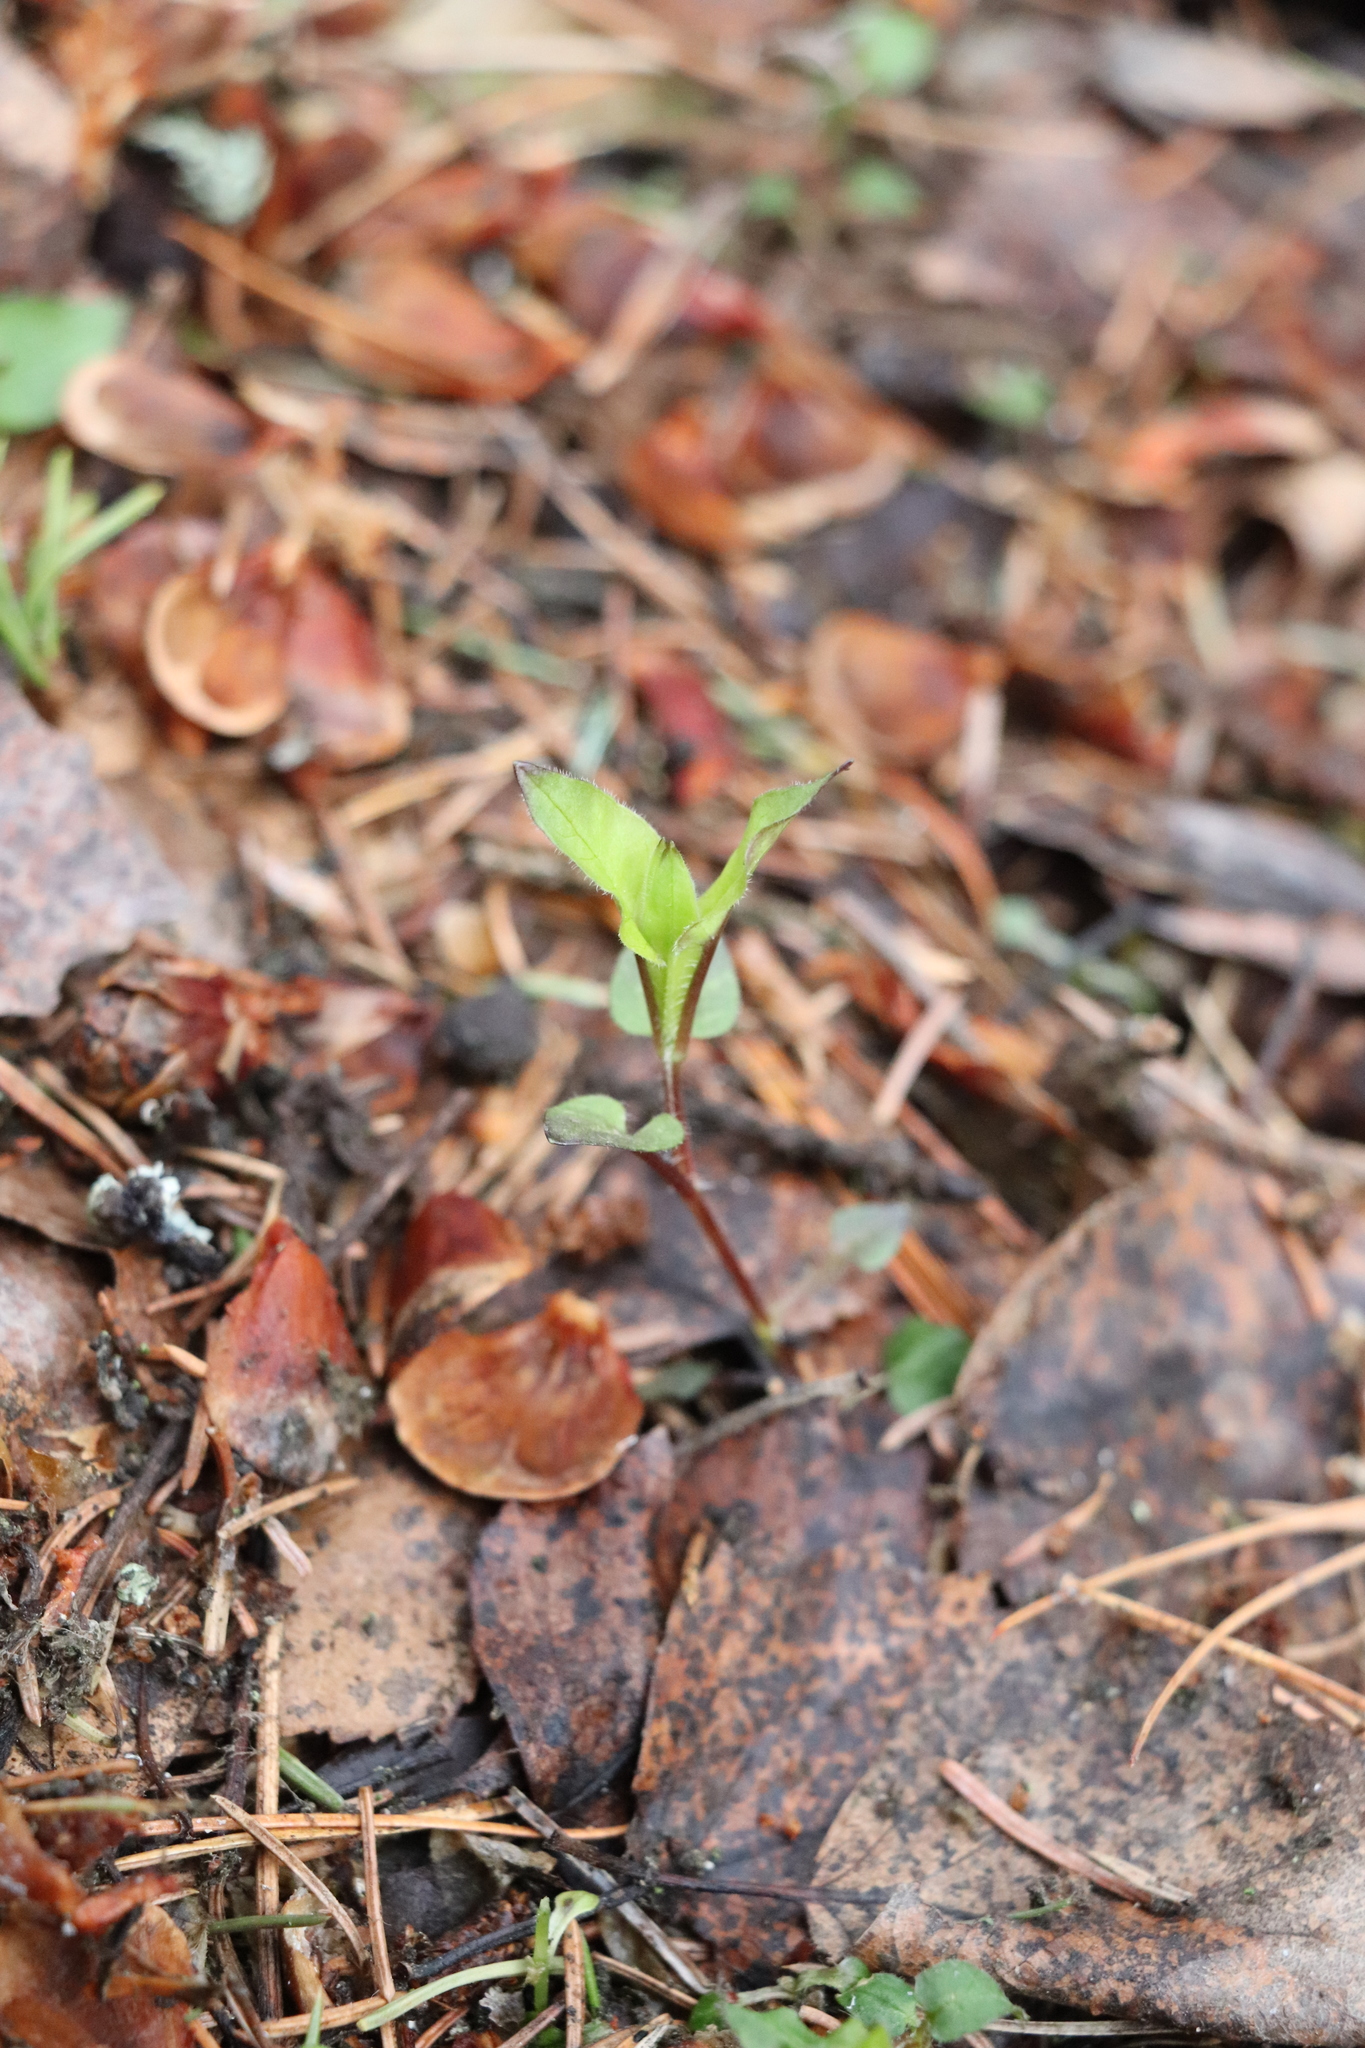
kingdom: Plantae
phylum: Tracheophyta
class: Magnoliopsida
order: Caryophyllales
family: Caryophyllaceae
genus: Stellaria
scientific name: Stellaria bungeana
